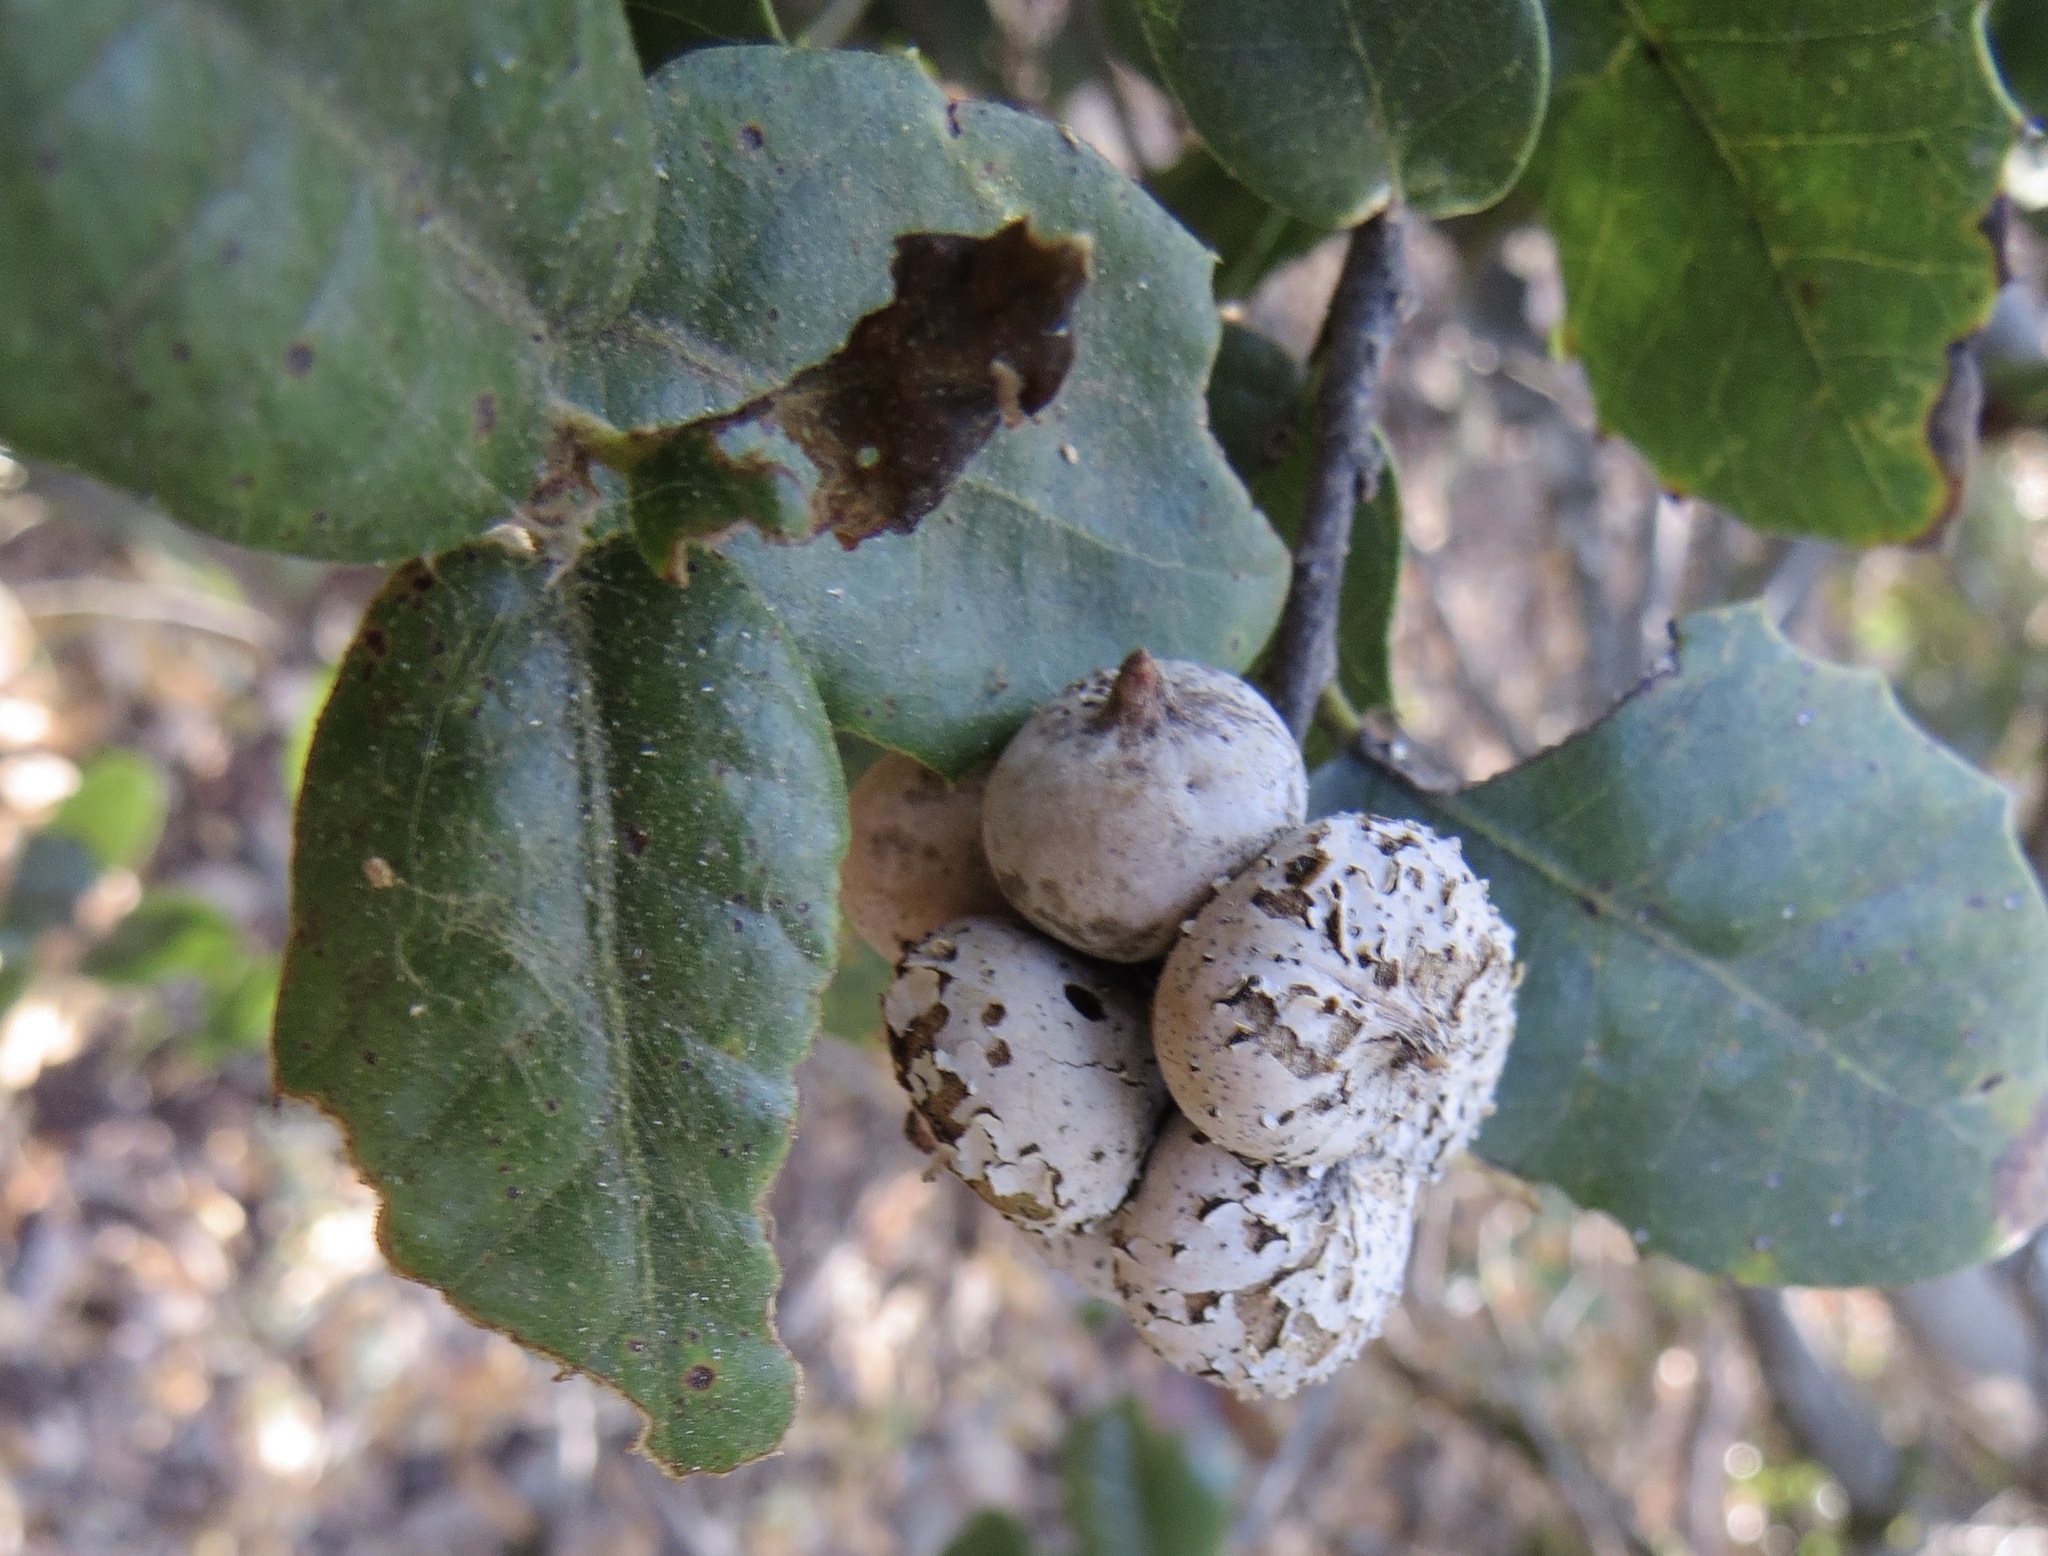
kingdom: Animalia
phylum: Arthropoda
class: Insecta
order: Hymenoptera
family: Cynipidae
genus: Heteroecus
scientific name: Heteroecus
